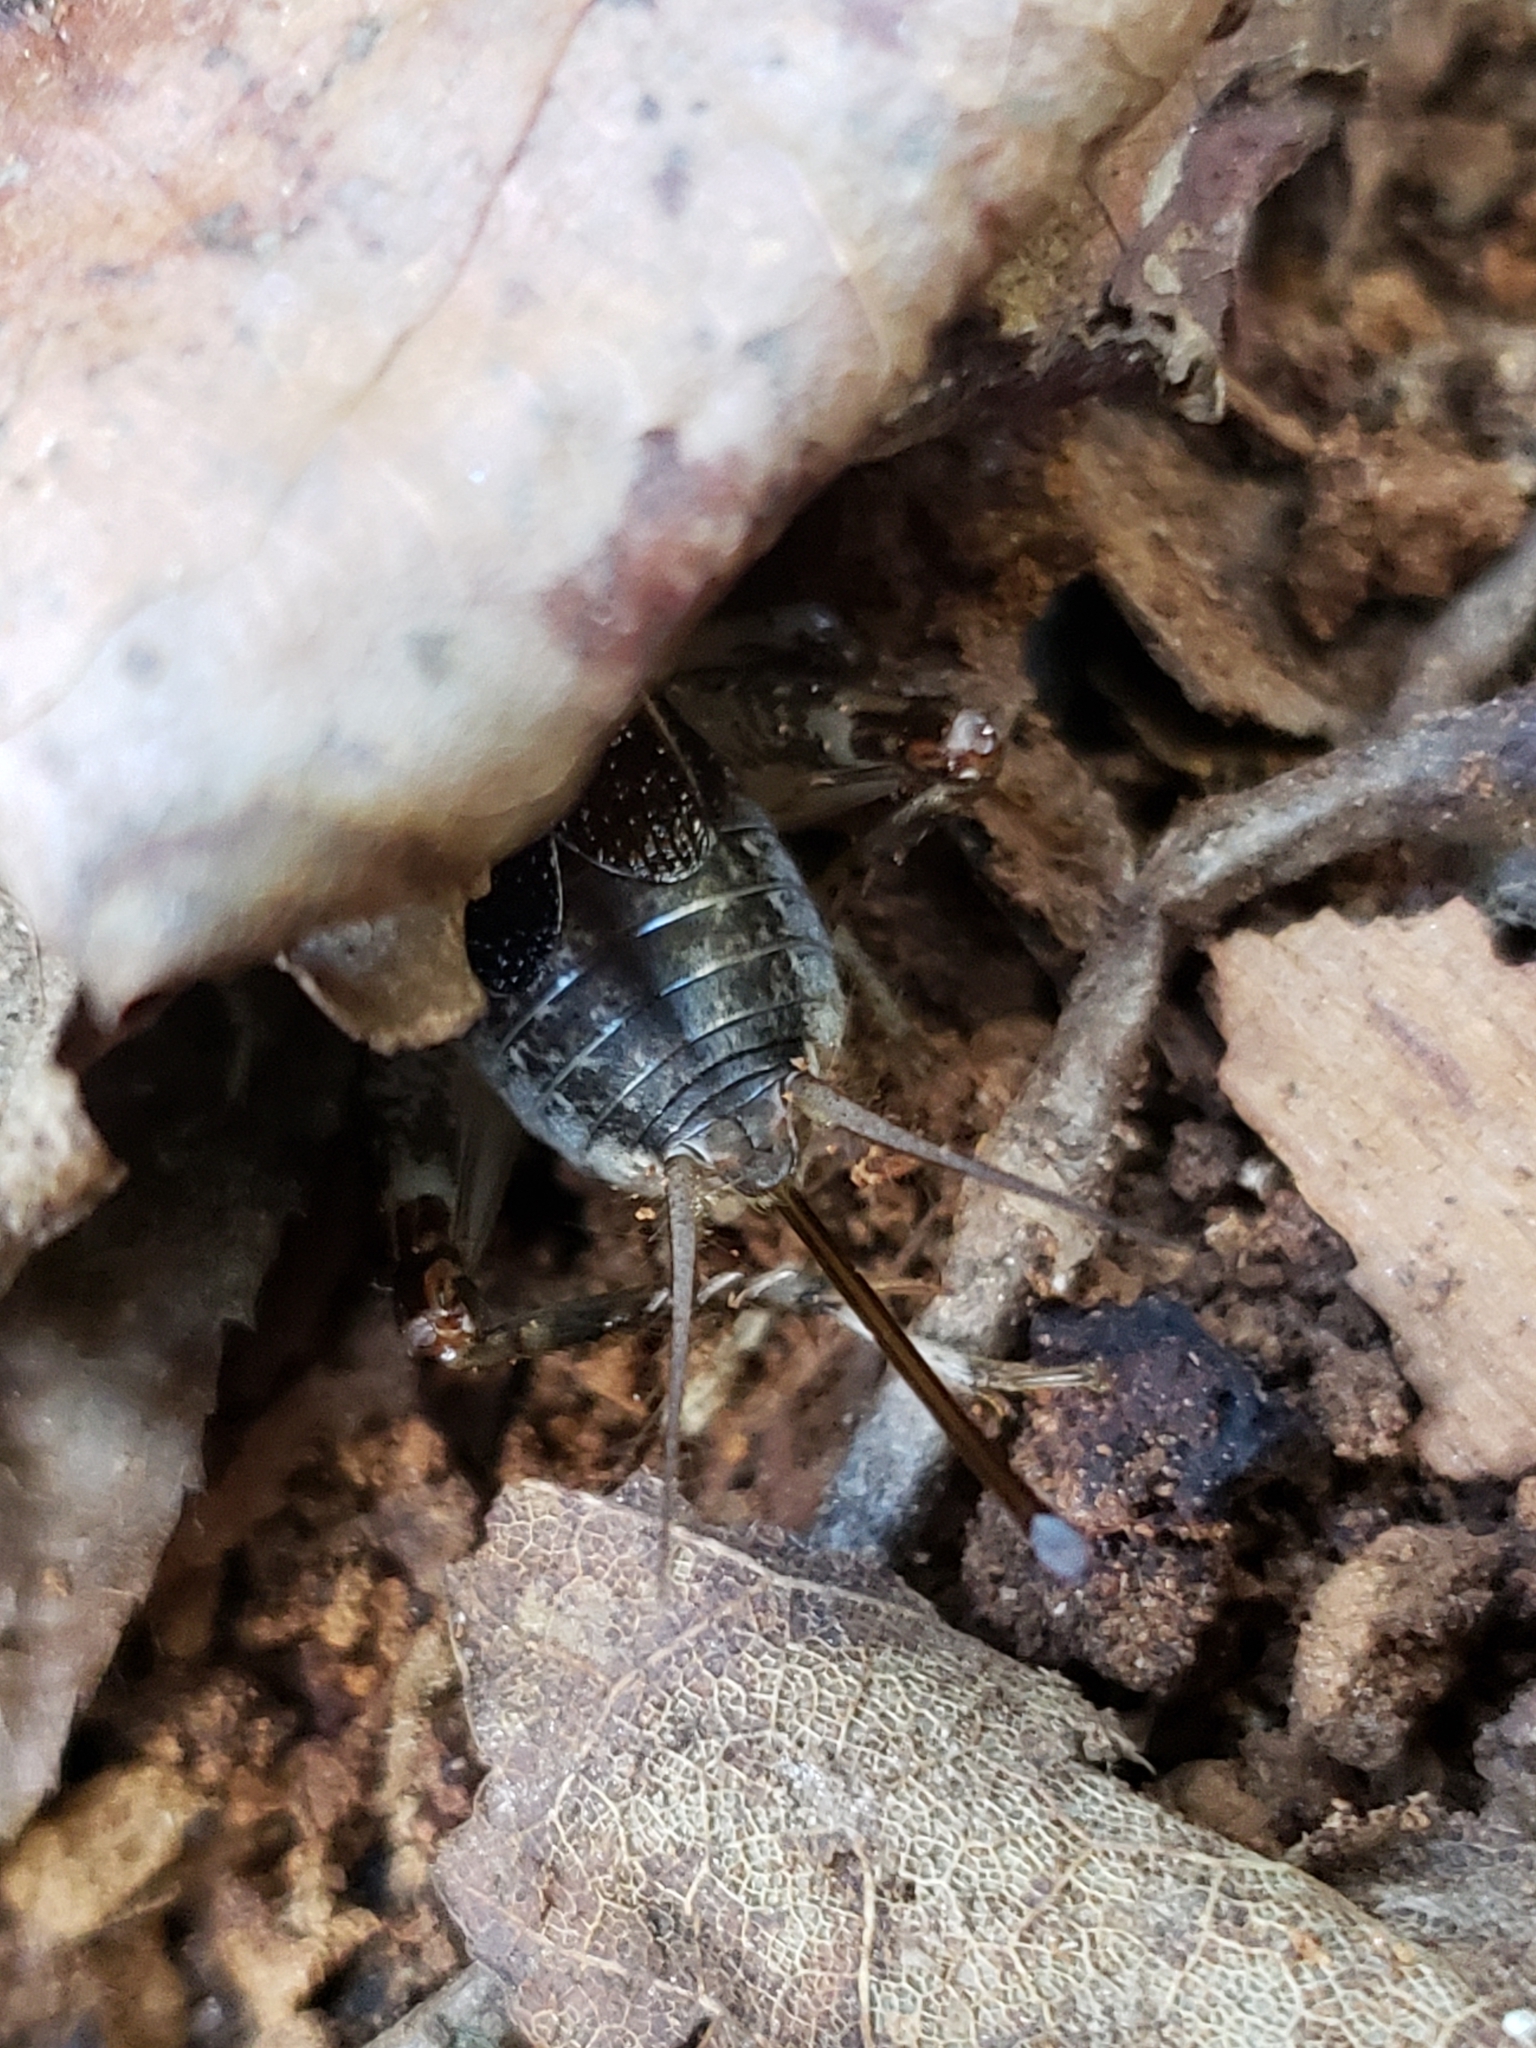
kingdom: Animalia
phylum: Arthropoda
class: Insecta
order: Orthoptera
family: Gryllidae
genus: Velarifictorus
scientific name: Velarifictorus micado
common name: Japanese burrowing cricket
